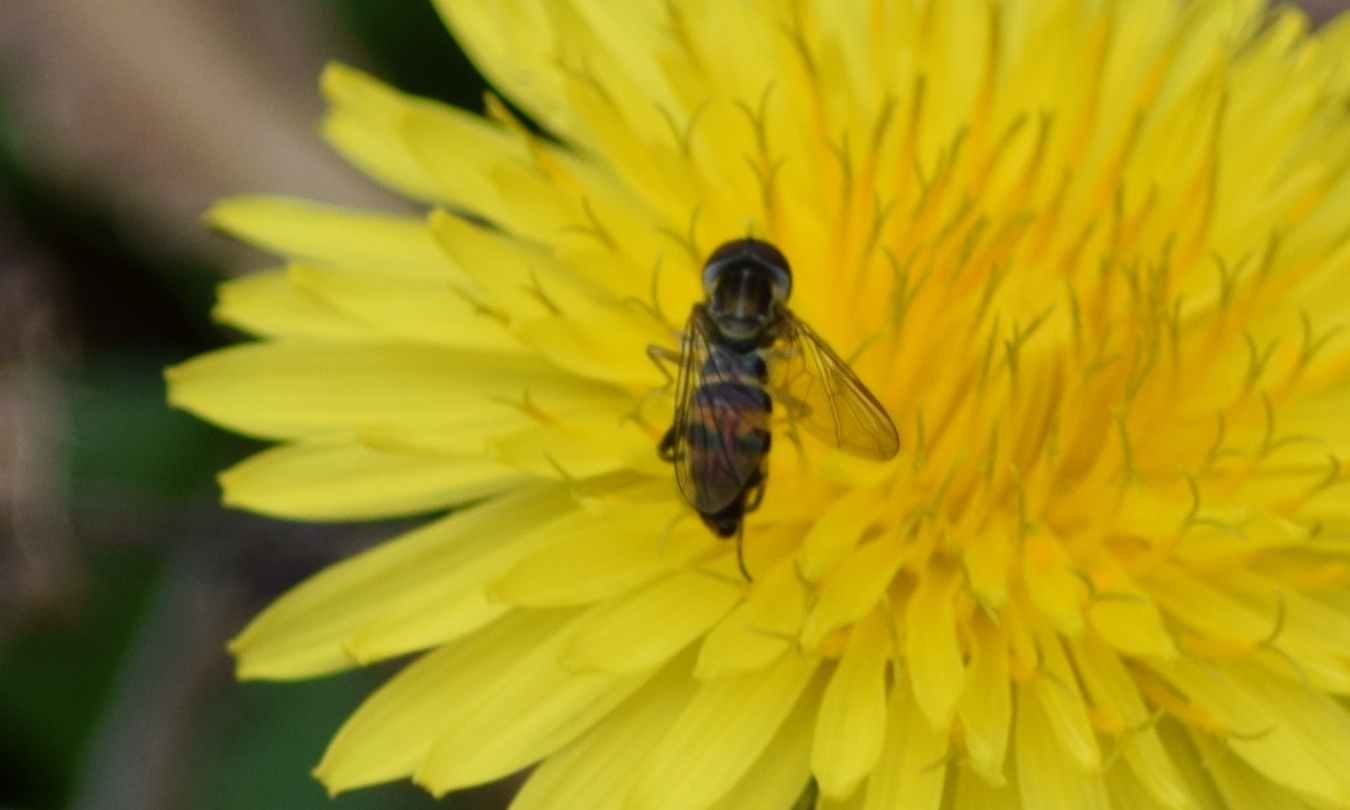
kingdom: Animalia
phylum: Arthropoda
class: Insecta
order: Diptera
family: Syrphidae
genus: Toxomerus
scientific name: Toxomerus geminatus
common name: Eastern calligrapher
